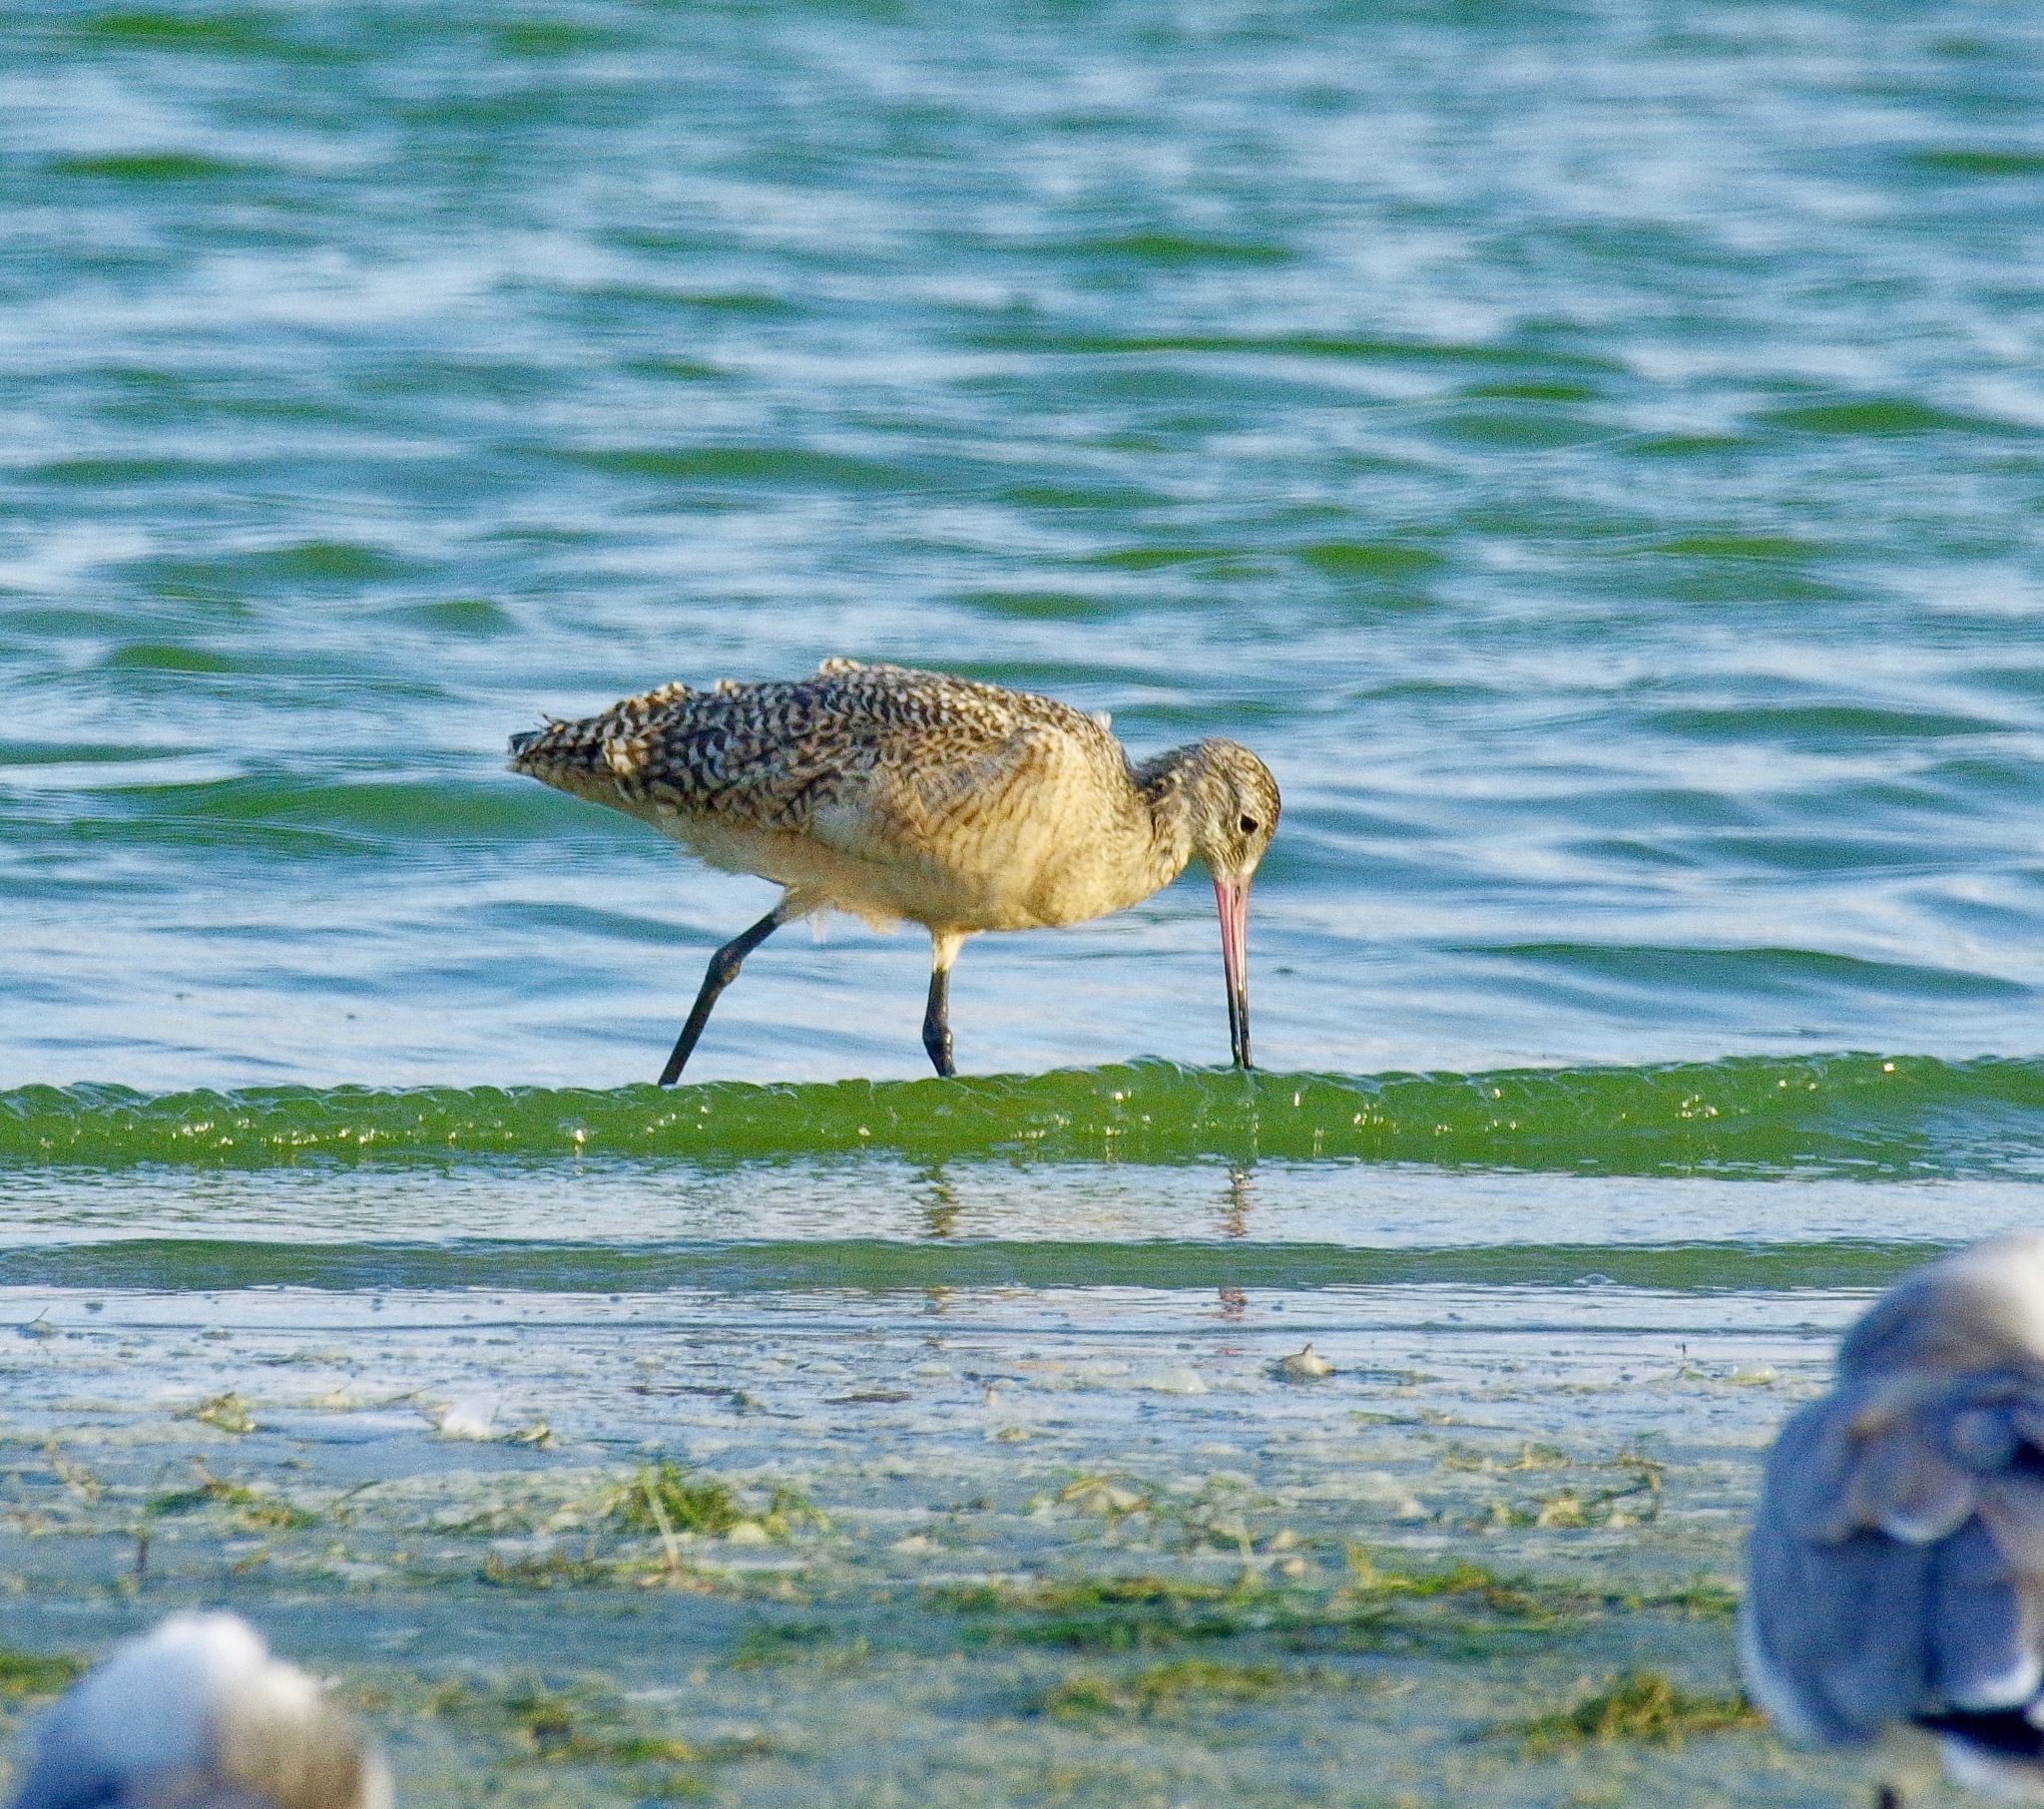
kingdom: Animalia
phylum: Chordata
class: Aves
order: Charadriiformes
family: Scolopacidae
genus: Limosa
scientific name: Limosa fedoa
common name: Marbled godwit
